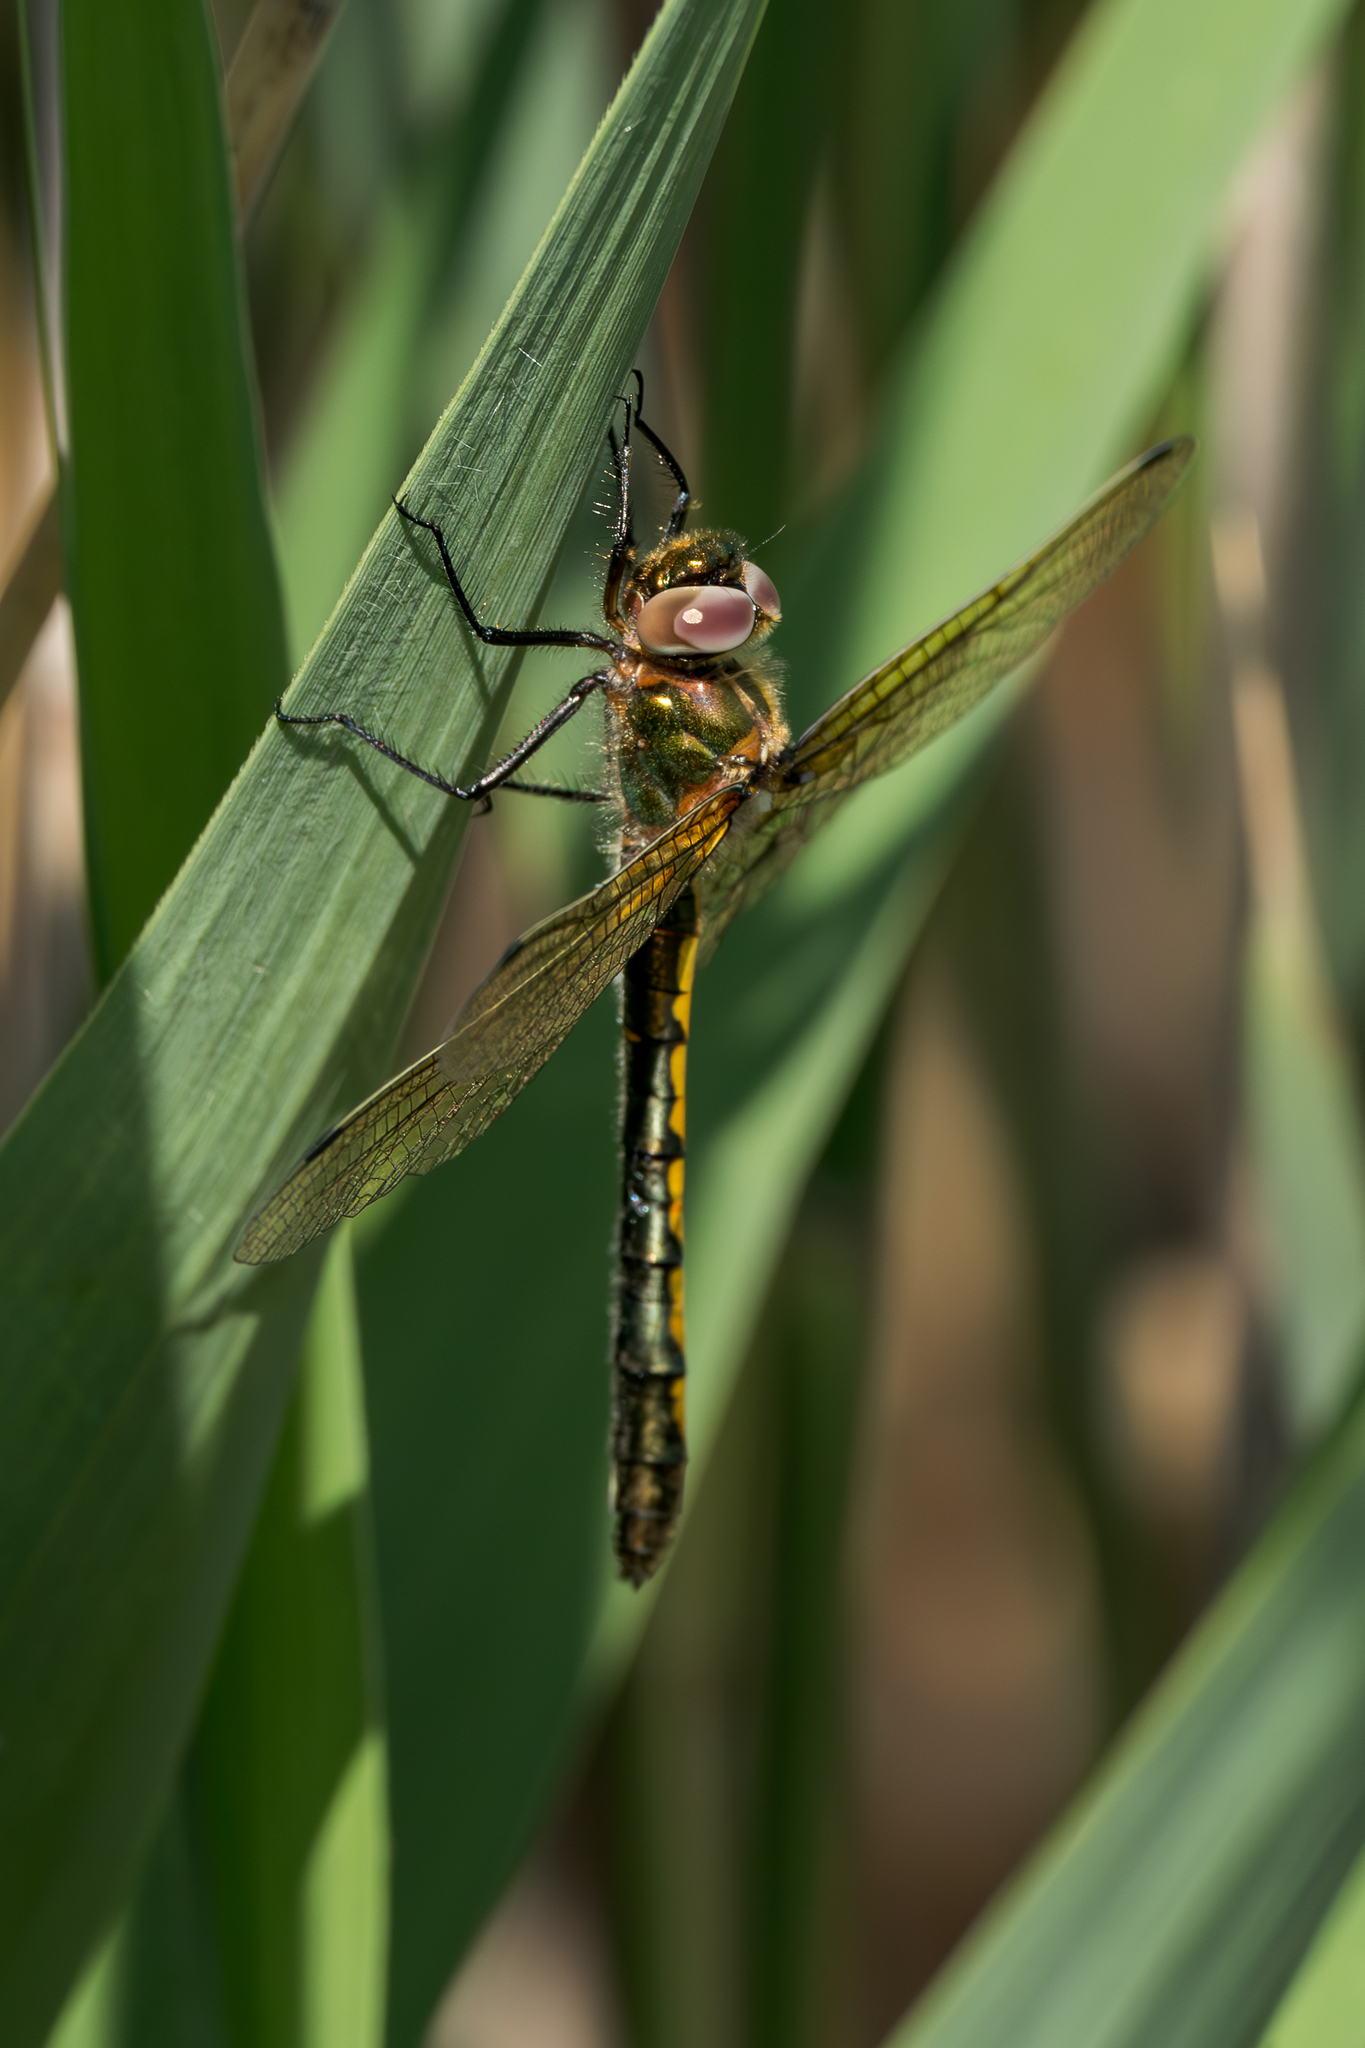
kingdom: Animalia
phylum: Arthropoda
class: Insecta
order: Odonata
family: Corduliidae
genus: Oxygastra
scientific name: Oxygastra curtisii
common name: Orange-spotted emerald
